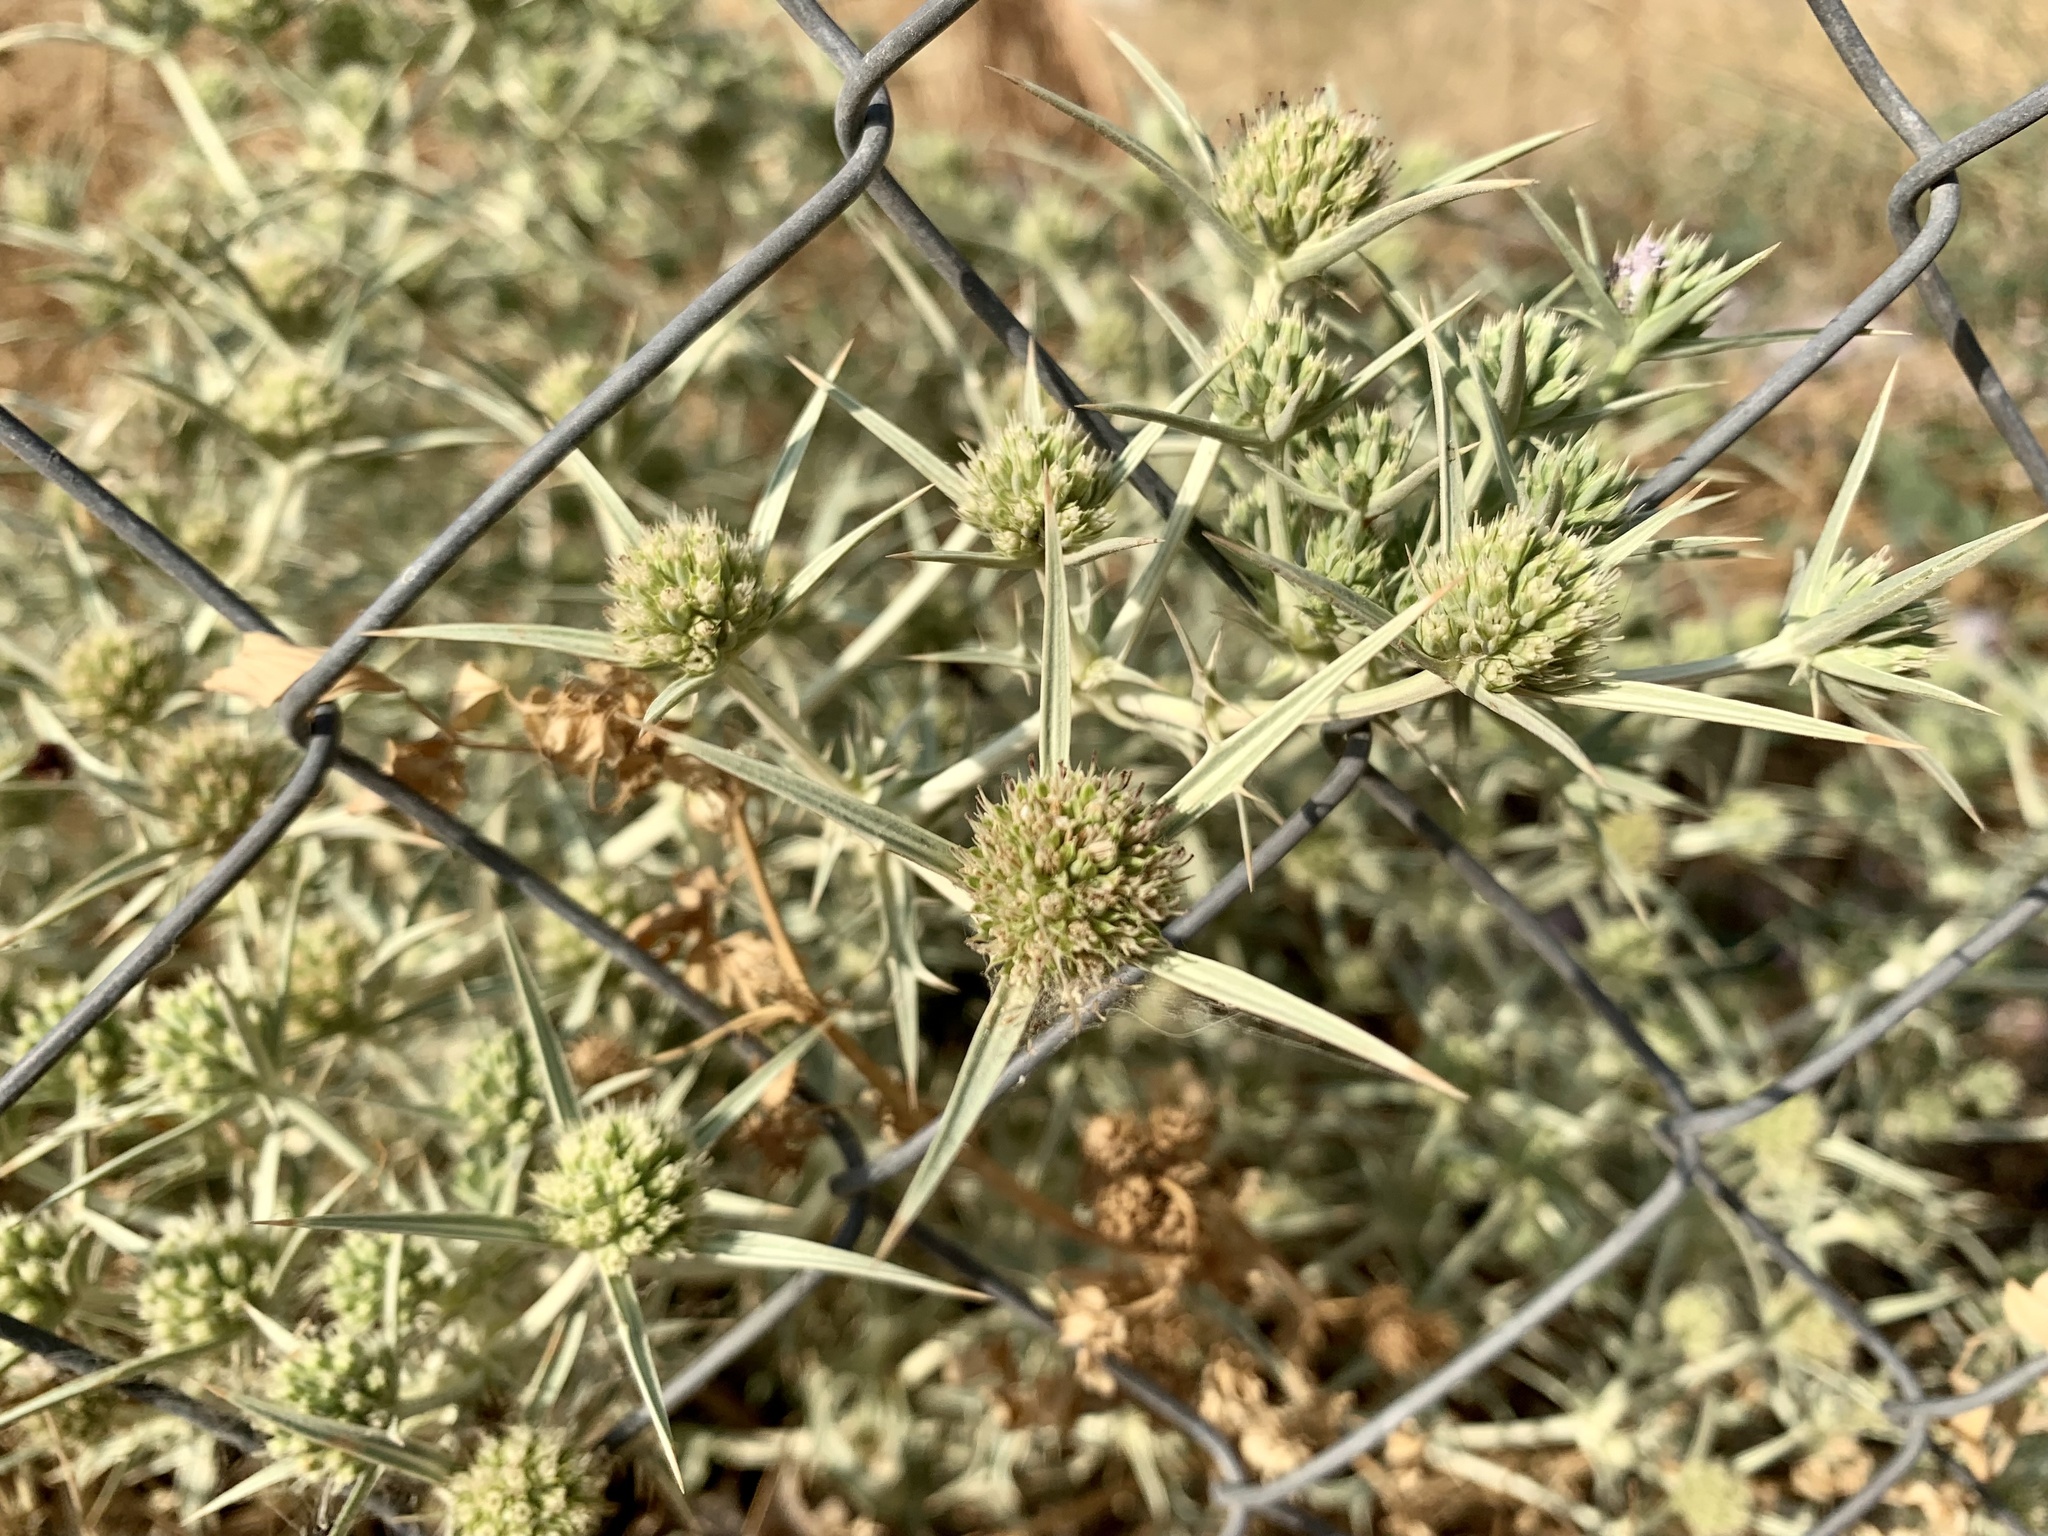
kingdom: Plantae
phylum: Tracheophyta
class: Magnoliopsida
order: Apiales
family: Apiaceae
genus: Eryngium
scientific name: Eryngium campestre
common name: Field eryngo
